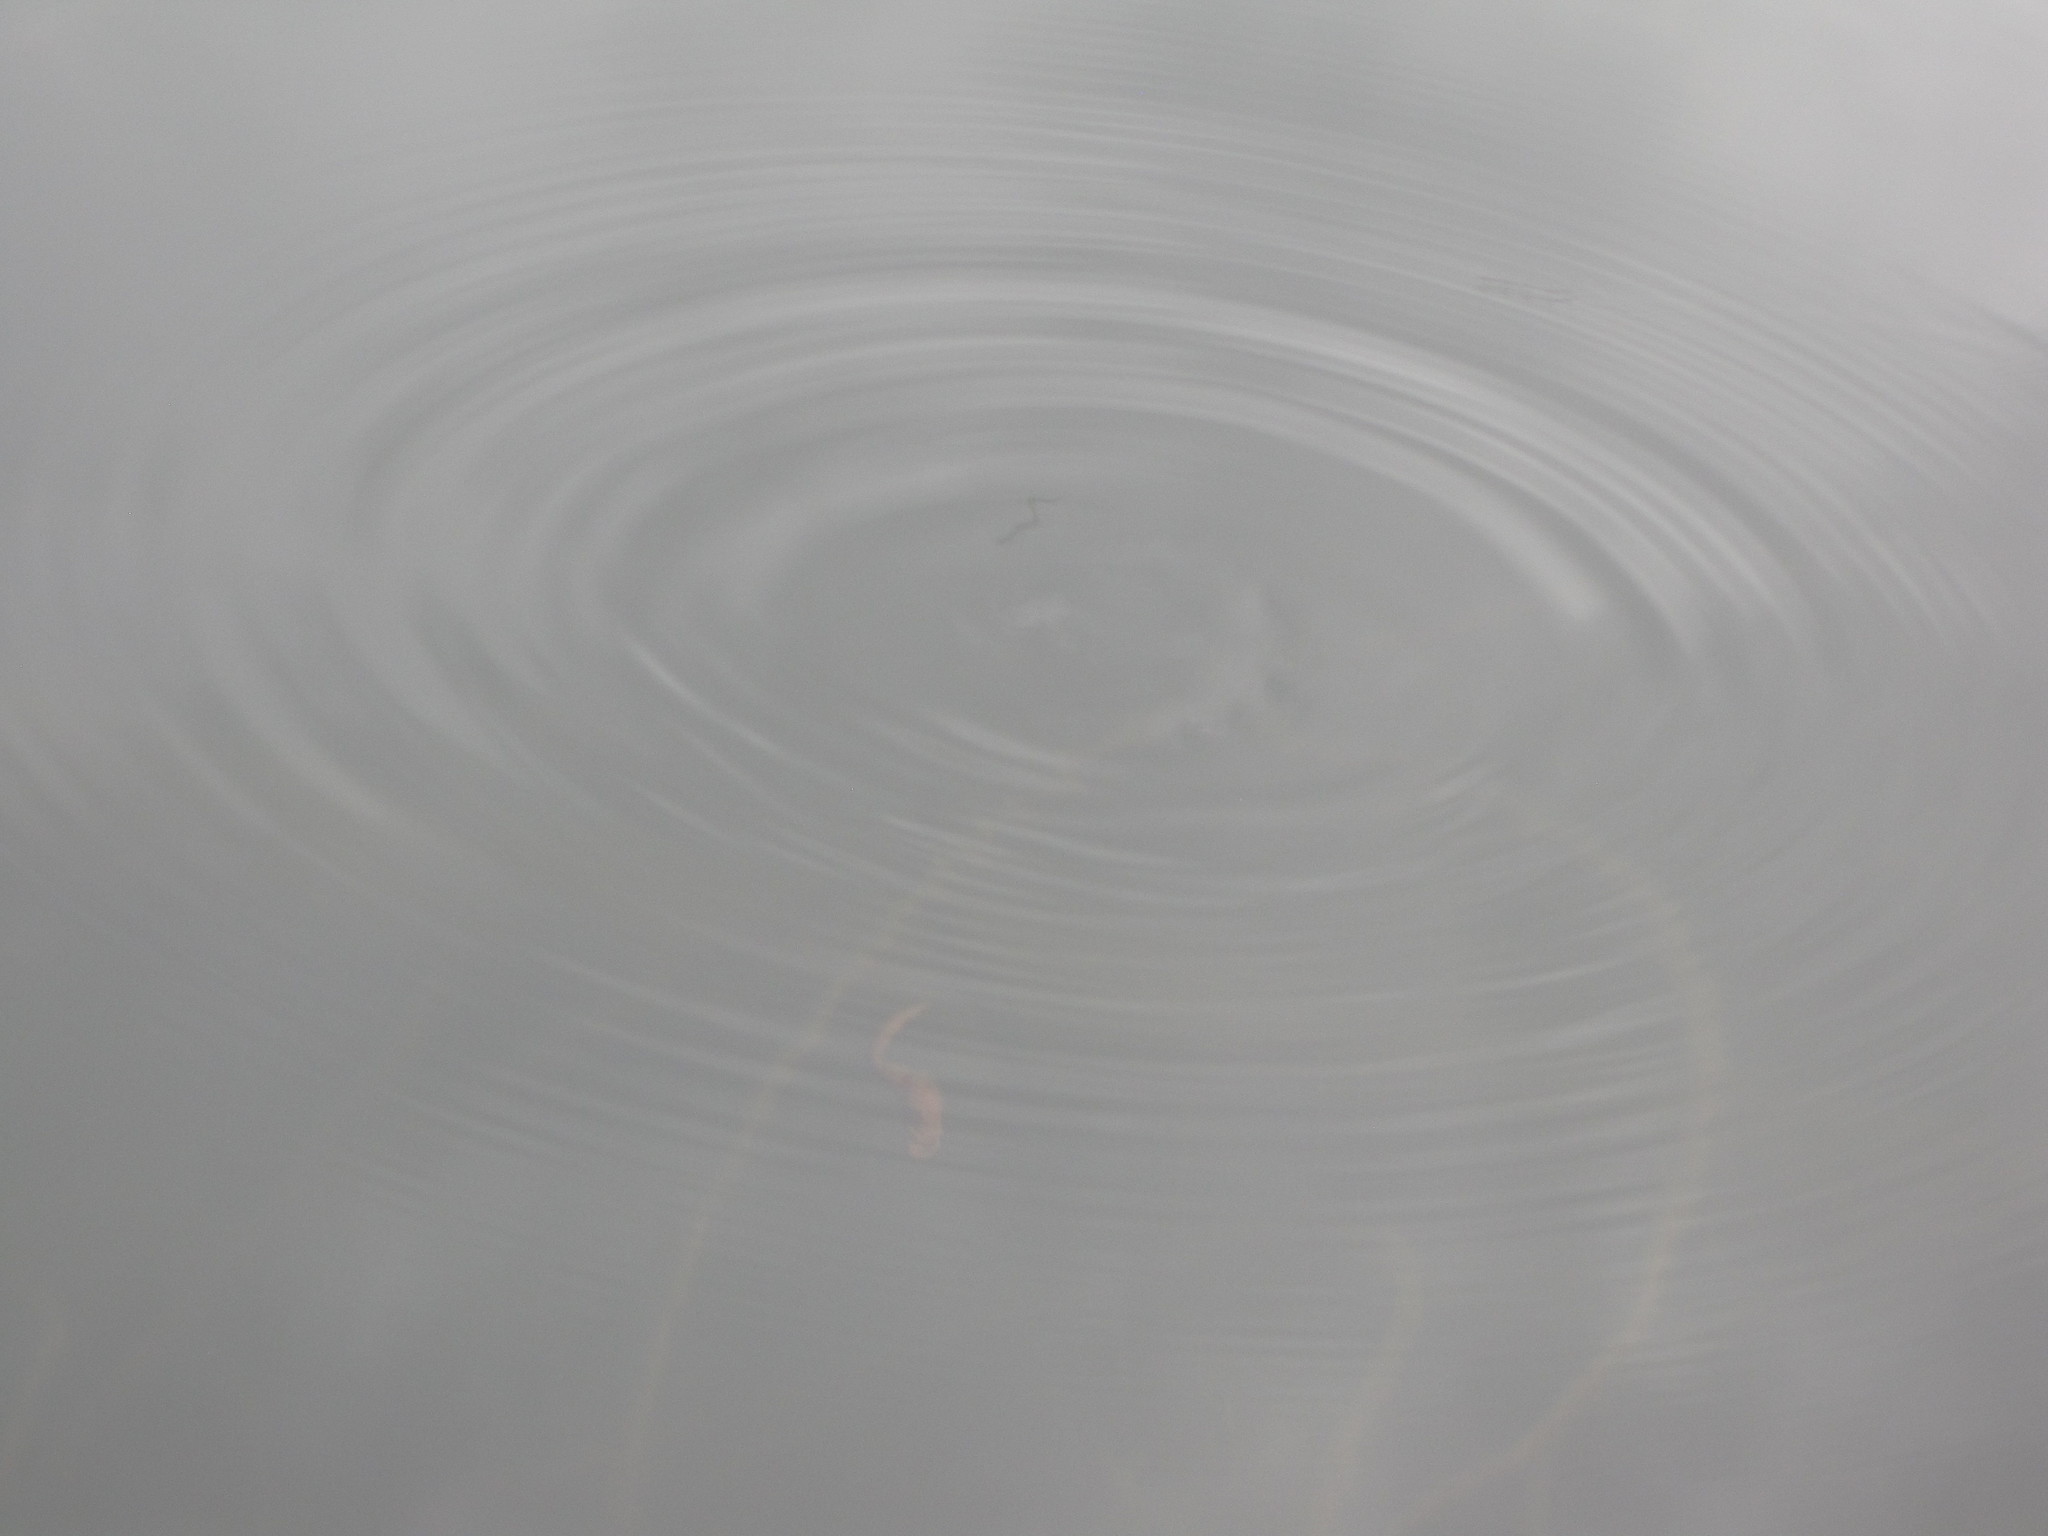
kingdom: Animalia
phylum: Chordata
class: Amphibia
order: Caudata
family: Salamandridae
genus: Taricha
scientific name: Taricha granulosa
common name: Roughskin newt
